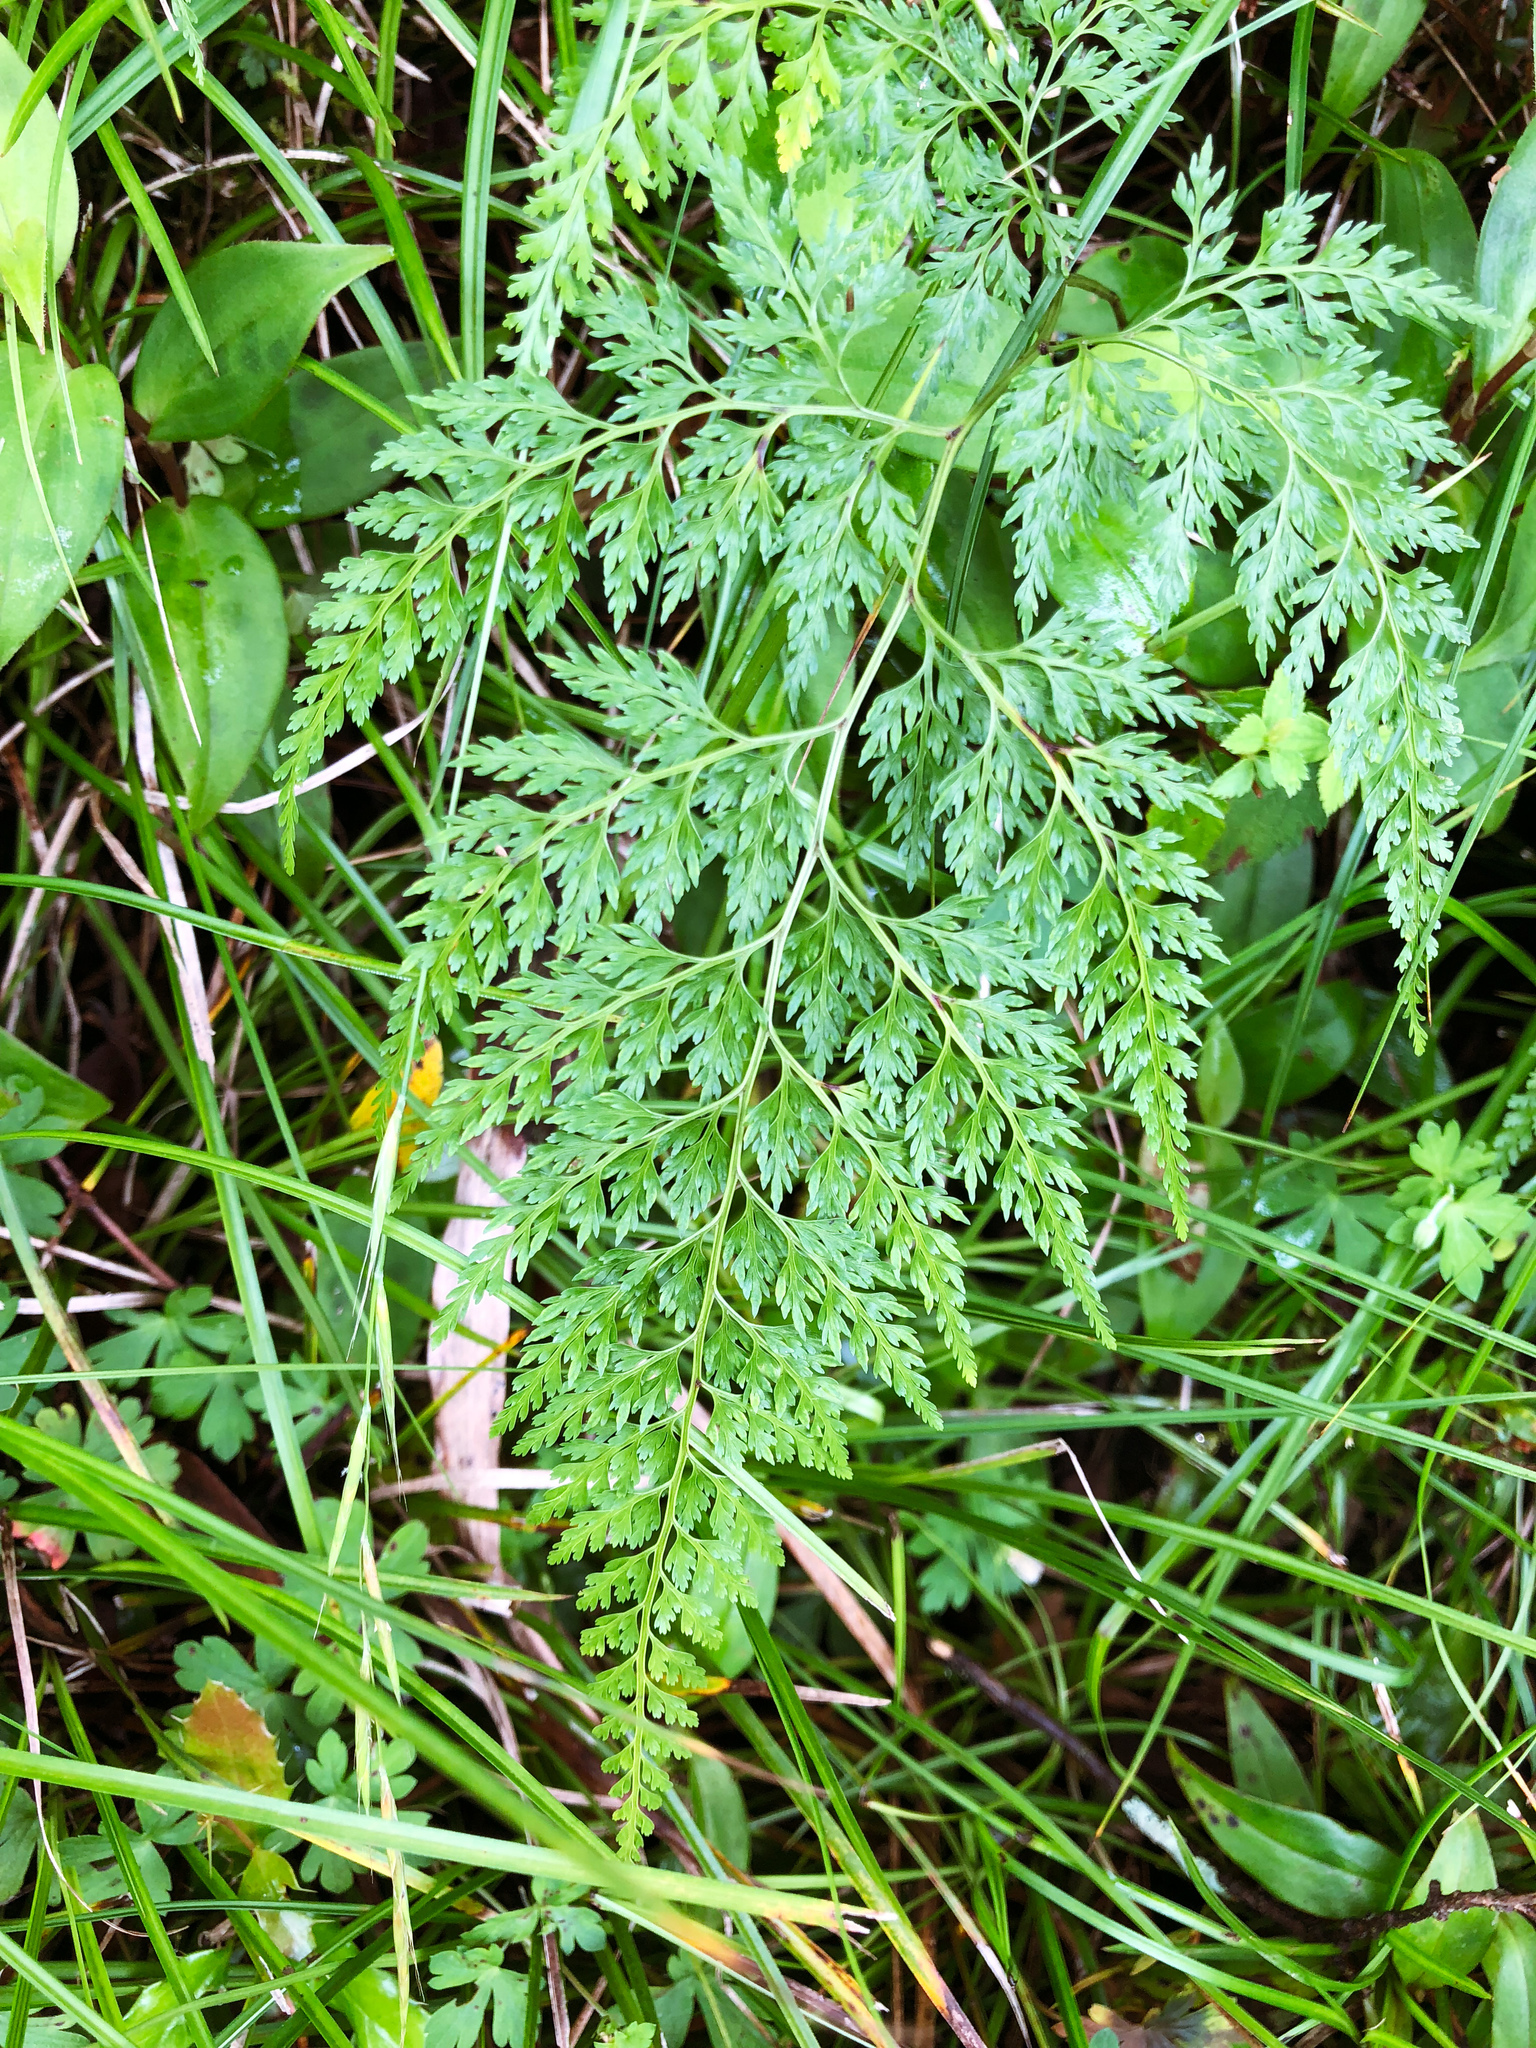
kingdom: Plantae
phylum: Tracheophyta
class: Polypodiopsida
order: Polypodiales
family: Pteridaceae
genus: Onychium
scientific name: Onychium lucidum
